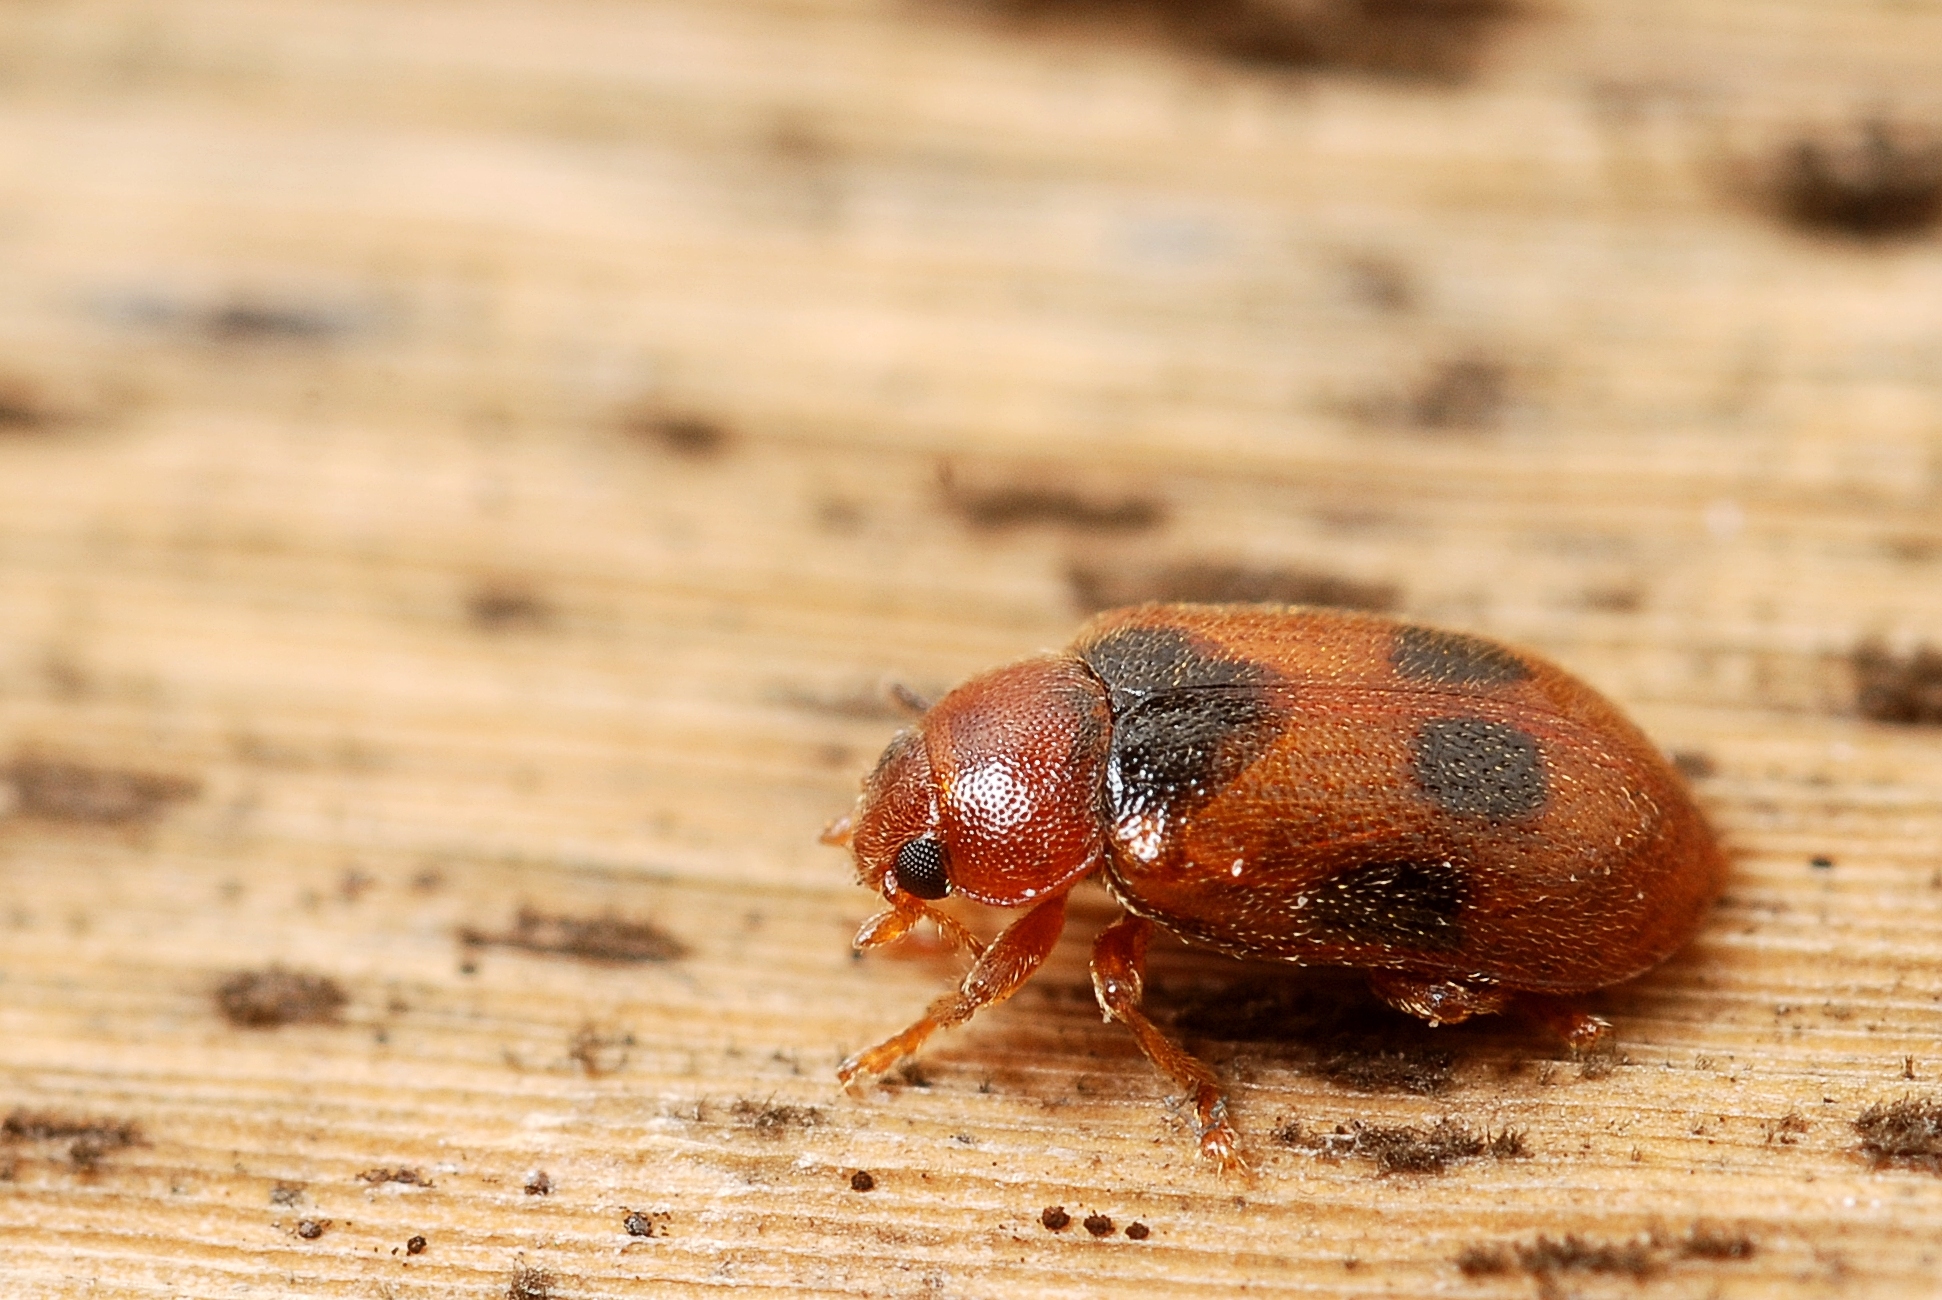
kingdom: Animalia
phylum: Arthropoda
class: Insecta
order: Coleoptera
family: Coccinellidae
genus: Coccidula
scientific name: Coccidula scutellata
